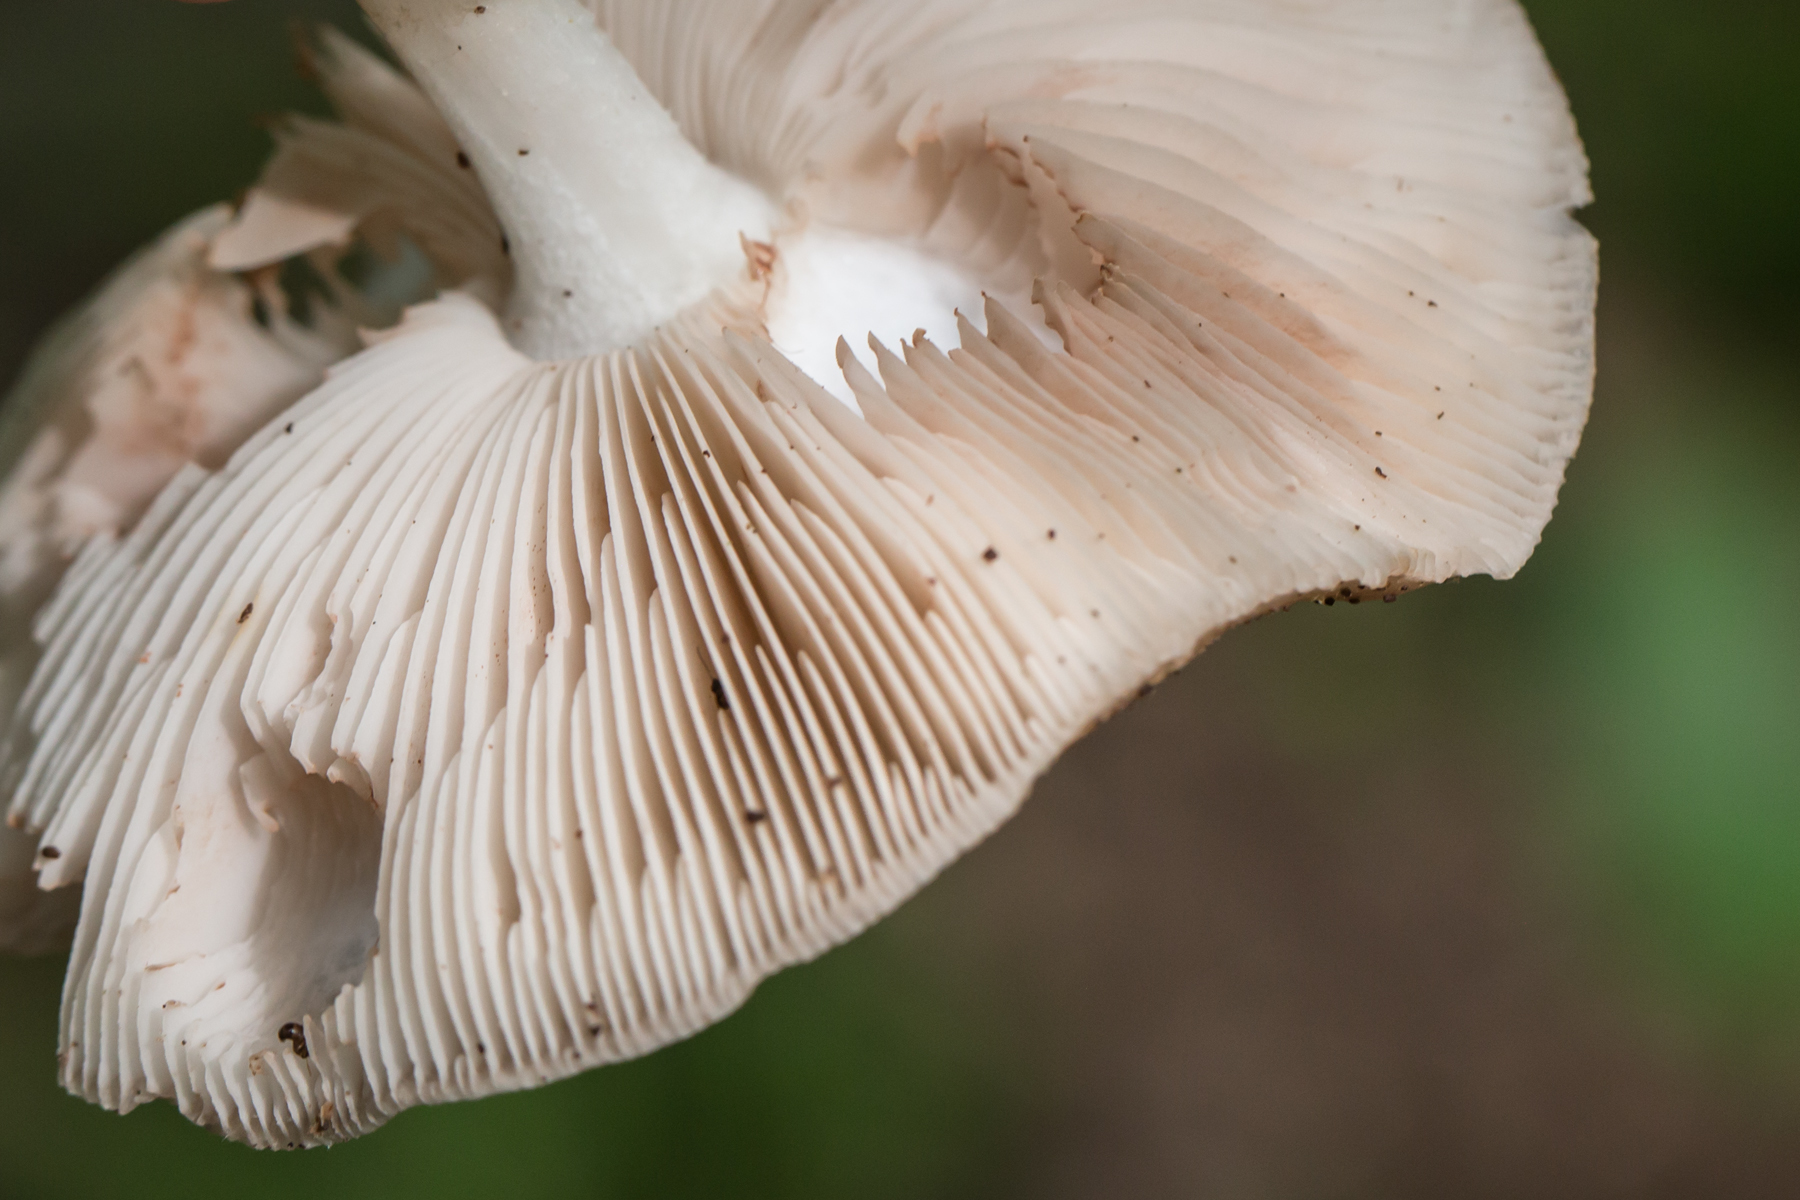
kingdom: Fungi
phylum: Basidiomycota
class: Agaricomycetes
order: Agaricales
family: Pluteaceae
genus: Pluteus
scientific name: Pluteus cervinus
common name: Deer shield
